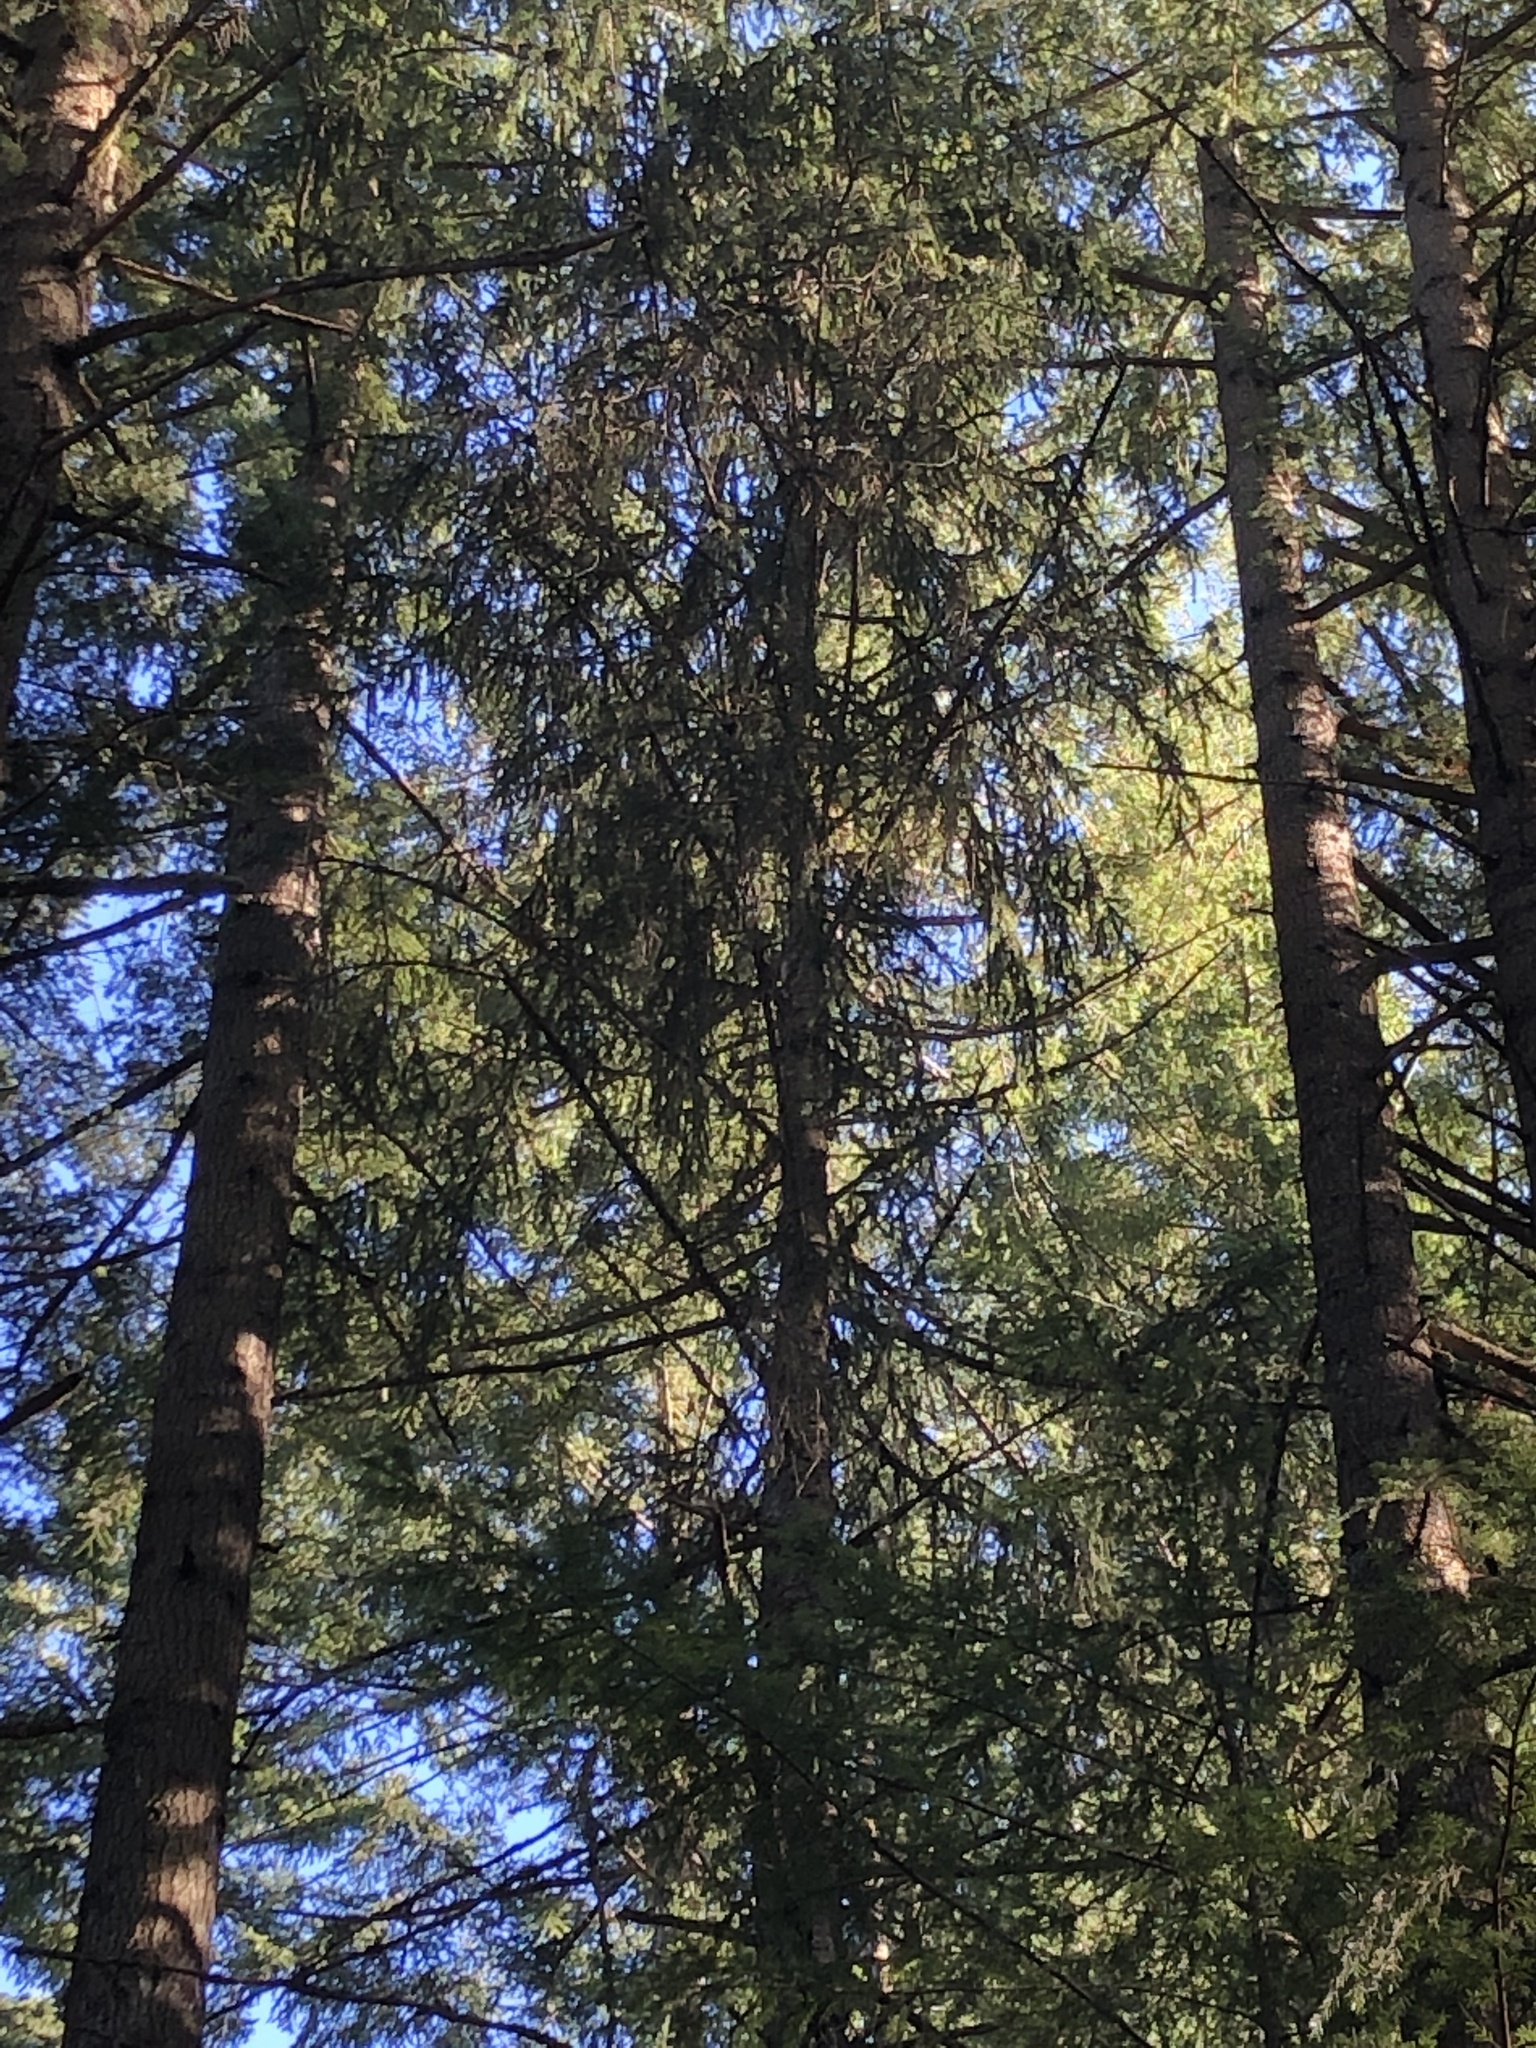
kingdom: Plantae
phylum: Tracheophyta
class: Pinopsida
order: Pinales
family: Pinaceae
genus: Picea
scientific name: Picea sitchensis
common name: Sitka spruce
